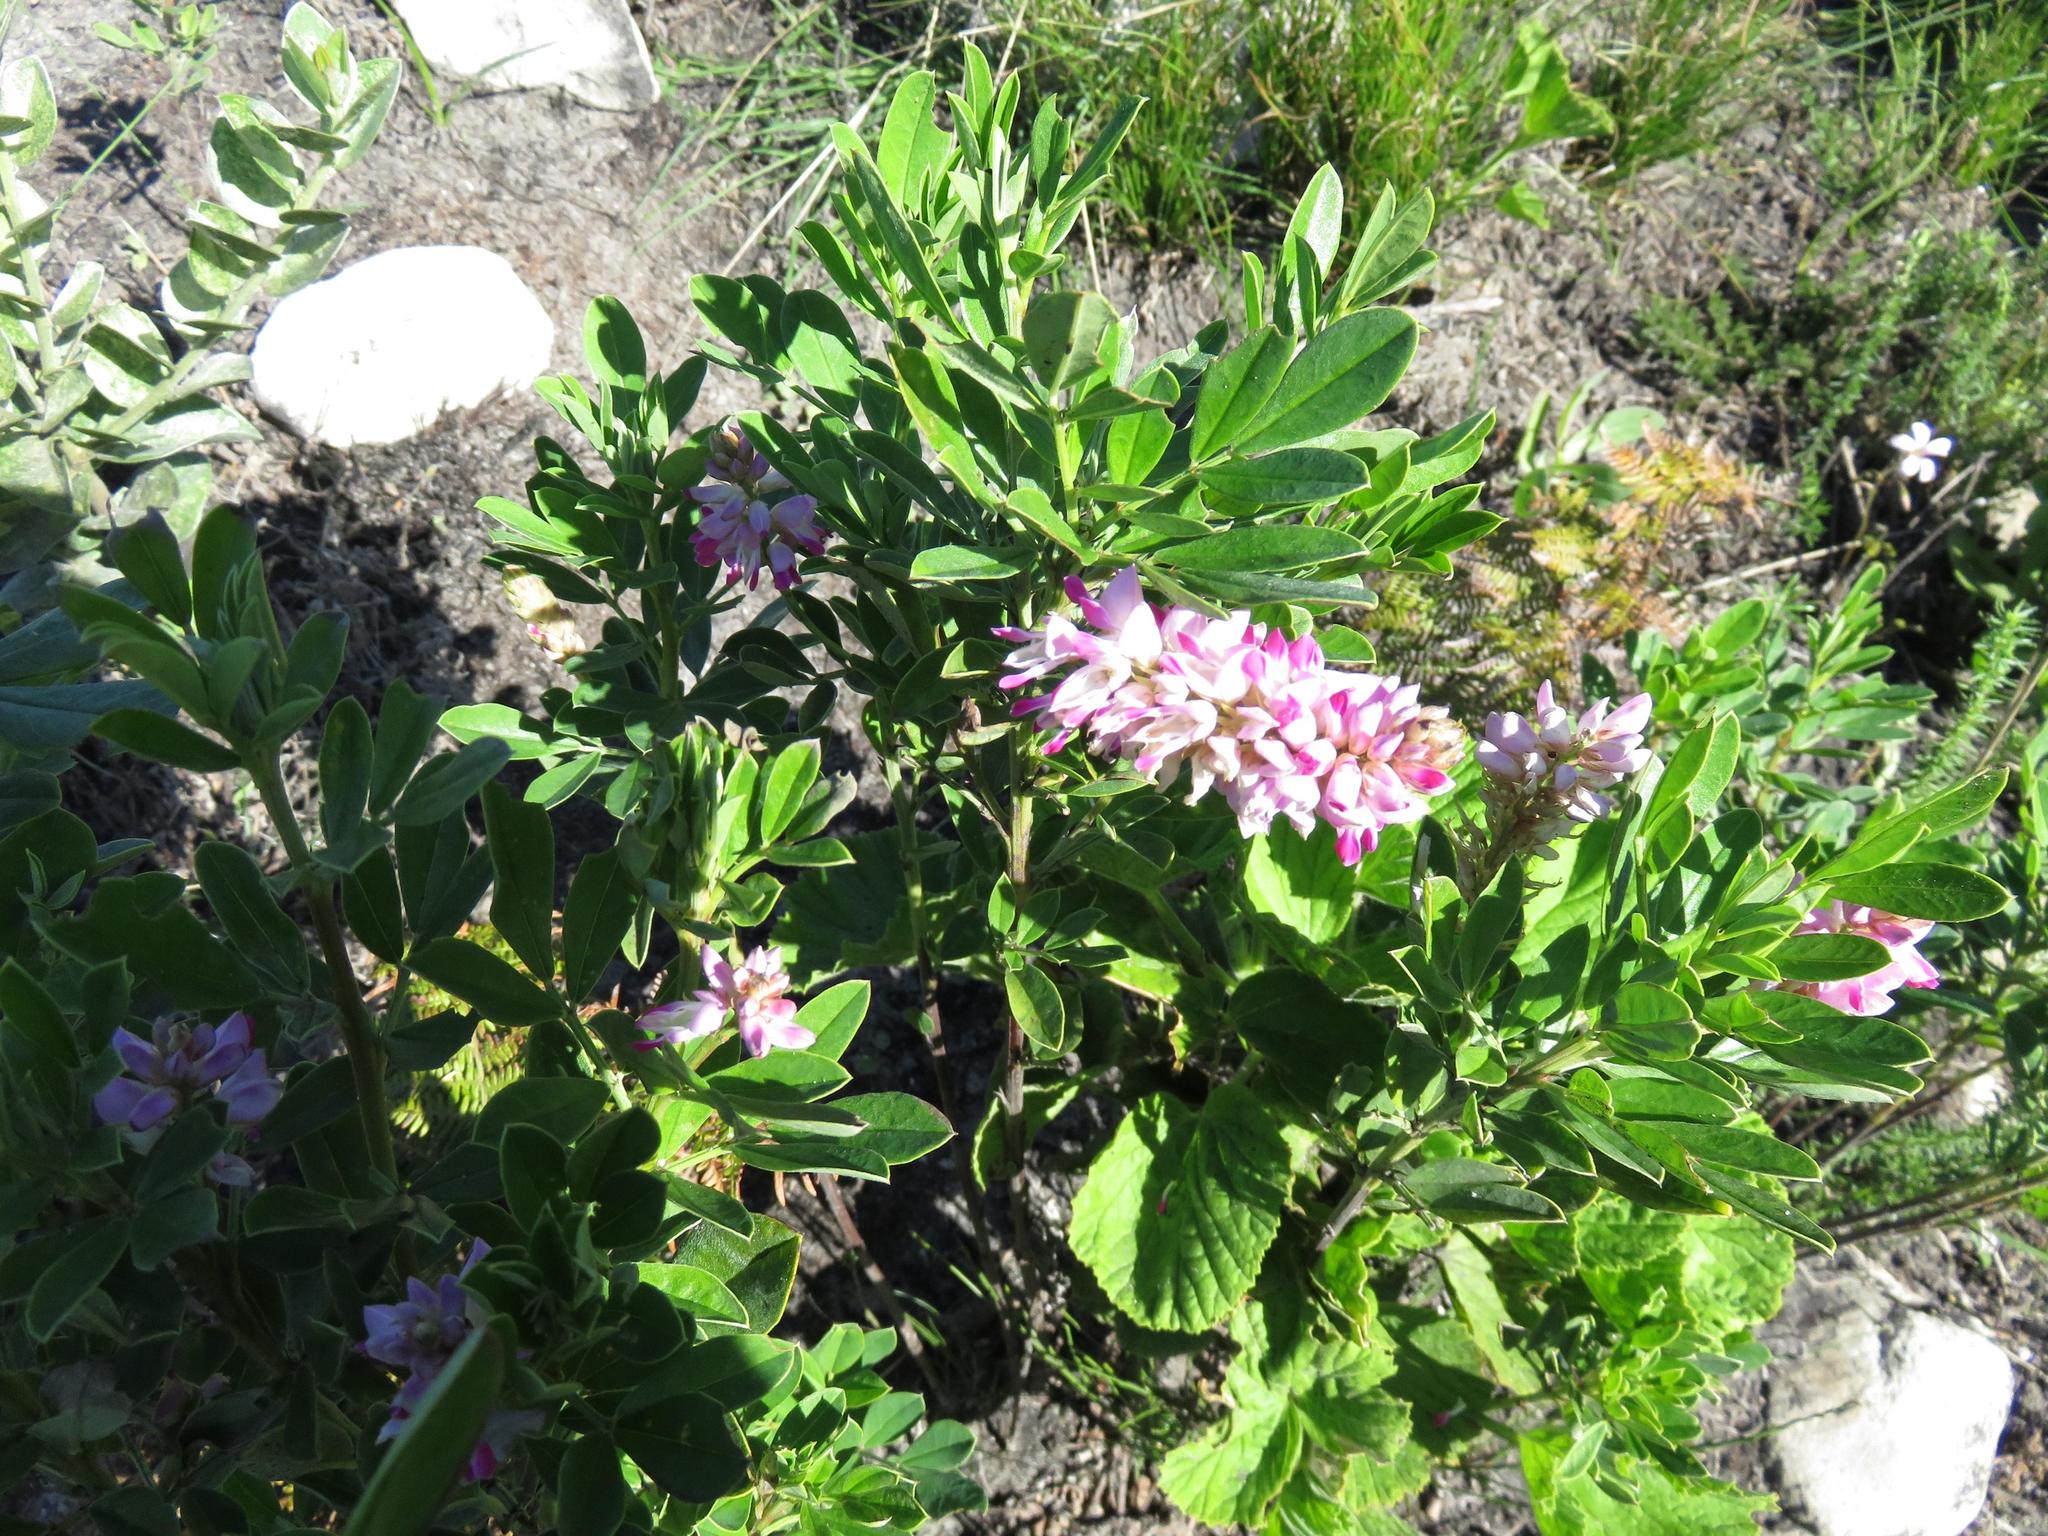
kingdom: Plantae
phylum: Tracheophyta
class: Magnoliopsida
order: Fabales
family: Fabaceae
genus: Indigofera
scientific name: Indigofera cytisoides
